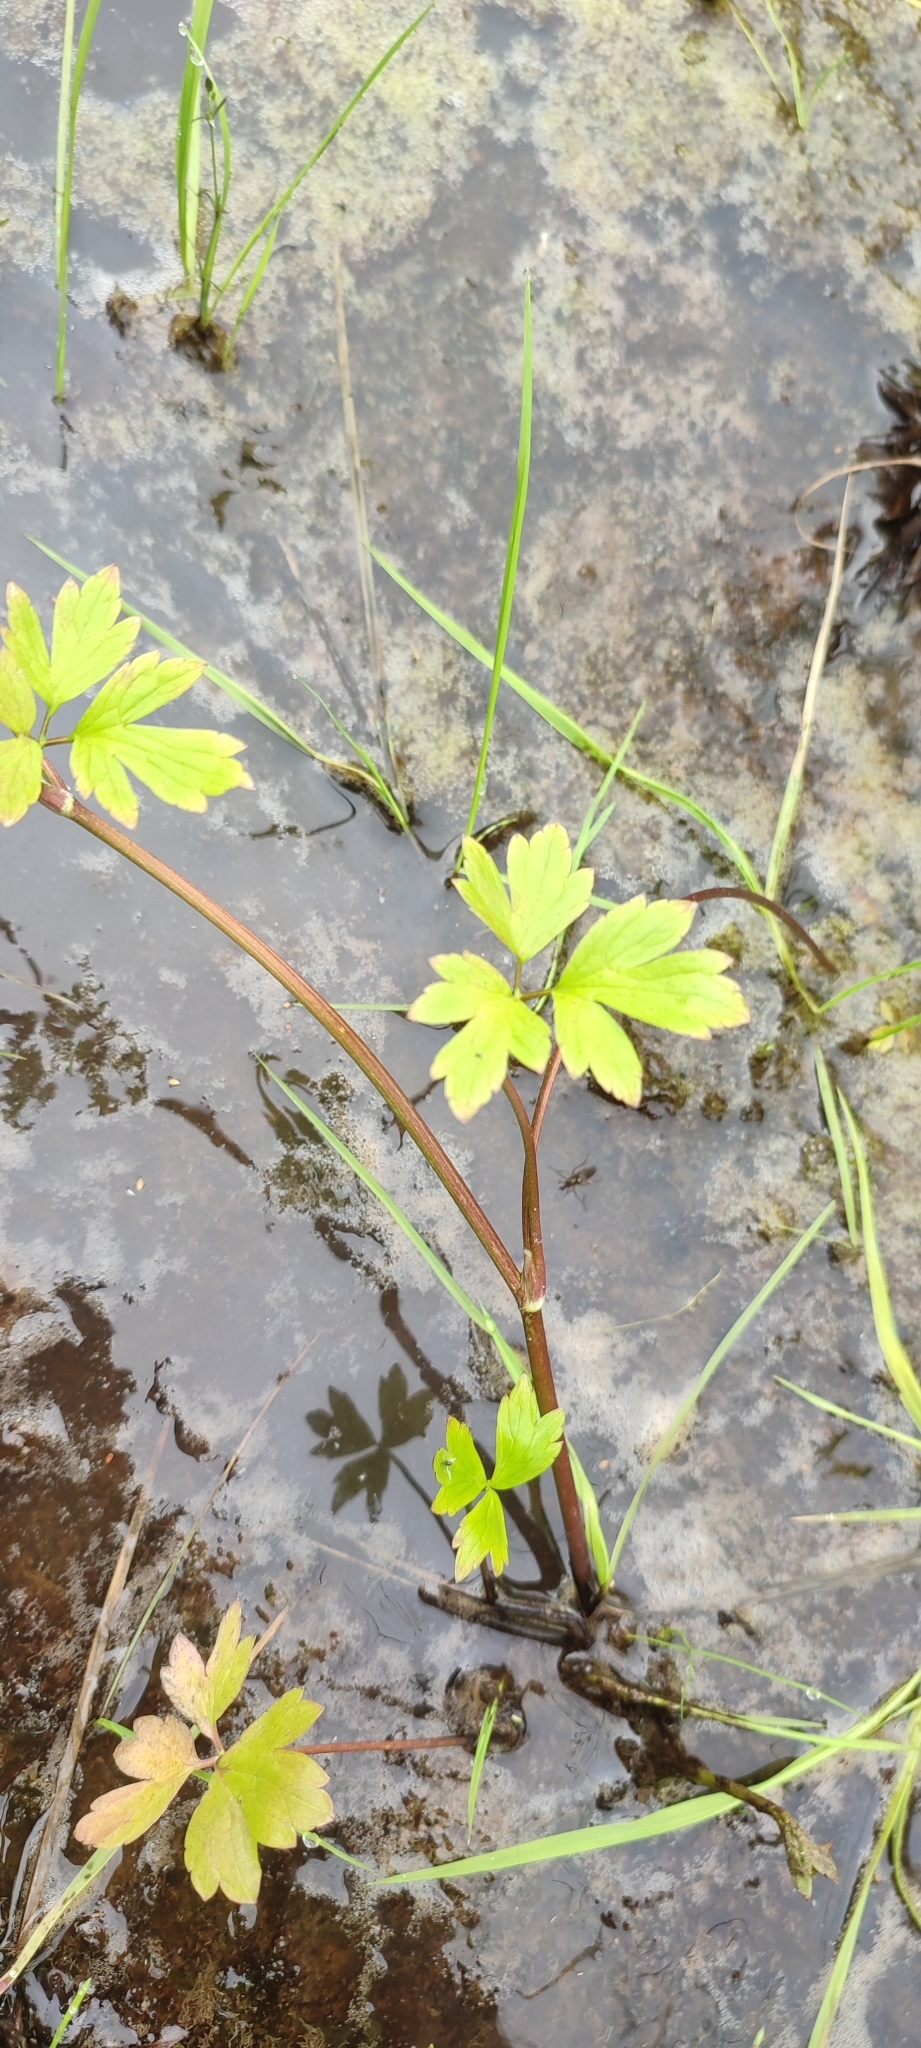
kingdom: Plantae
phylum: Tracheophyta
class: Magnoliopsida
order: Ranunculales
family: Ranunculaceae
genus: Ranunculus
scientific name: Ranunculus repens
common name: Creeping buttercup
